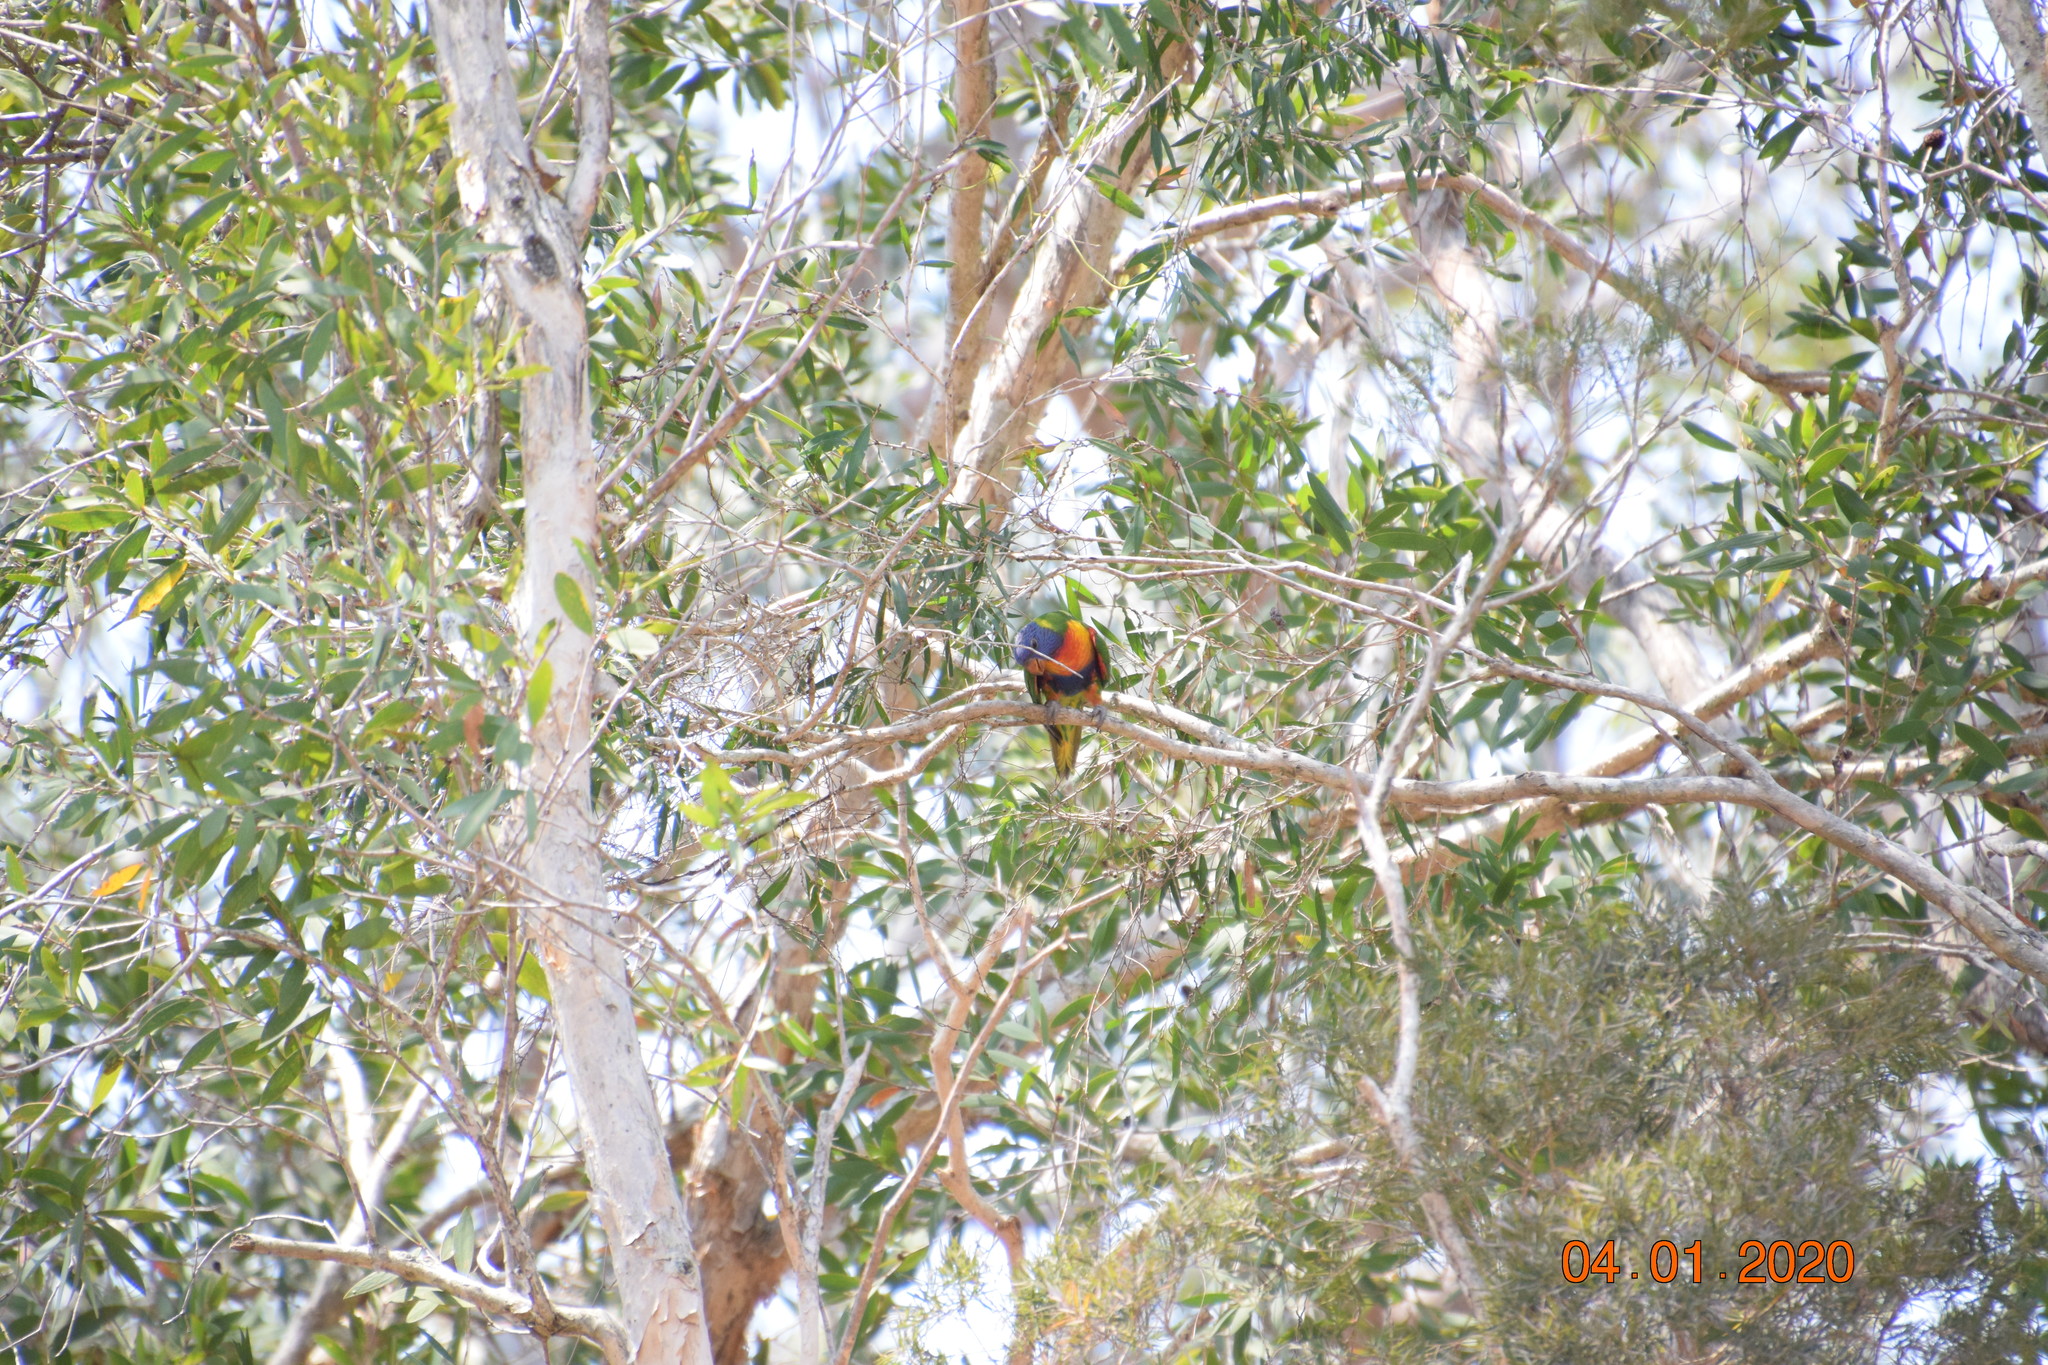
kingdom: Animalia
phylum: Chordata
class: Aves
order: Psittaciformes
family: Psittacidae
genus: Trichoglossus
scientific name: Trichoglossus haematodus
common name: Coconut lorikeet
